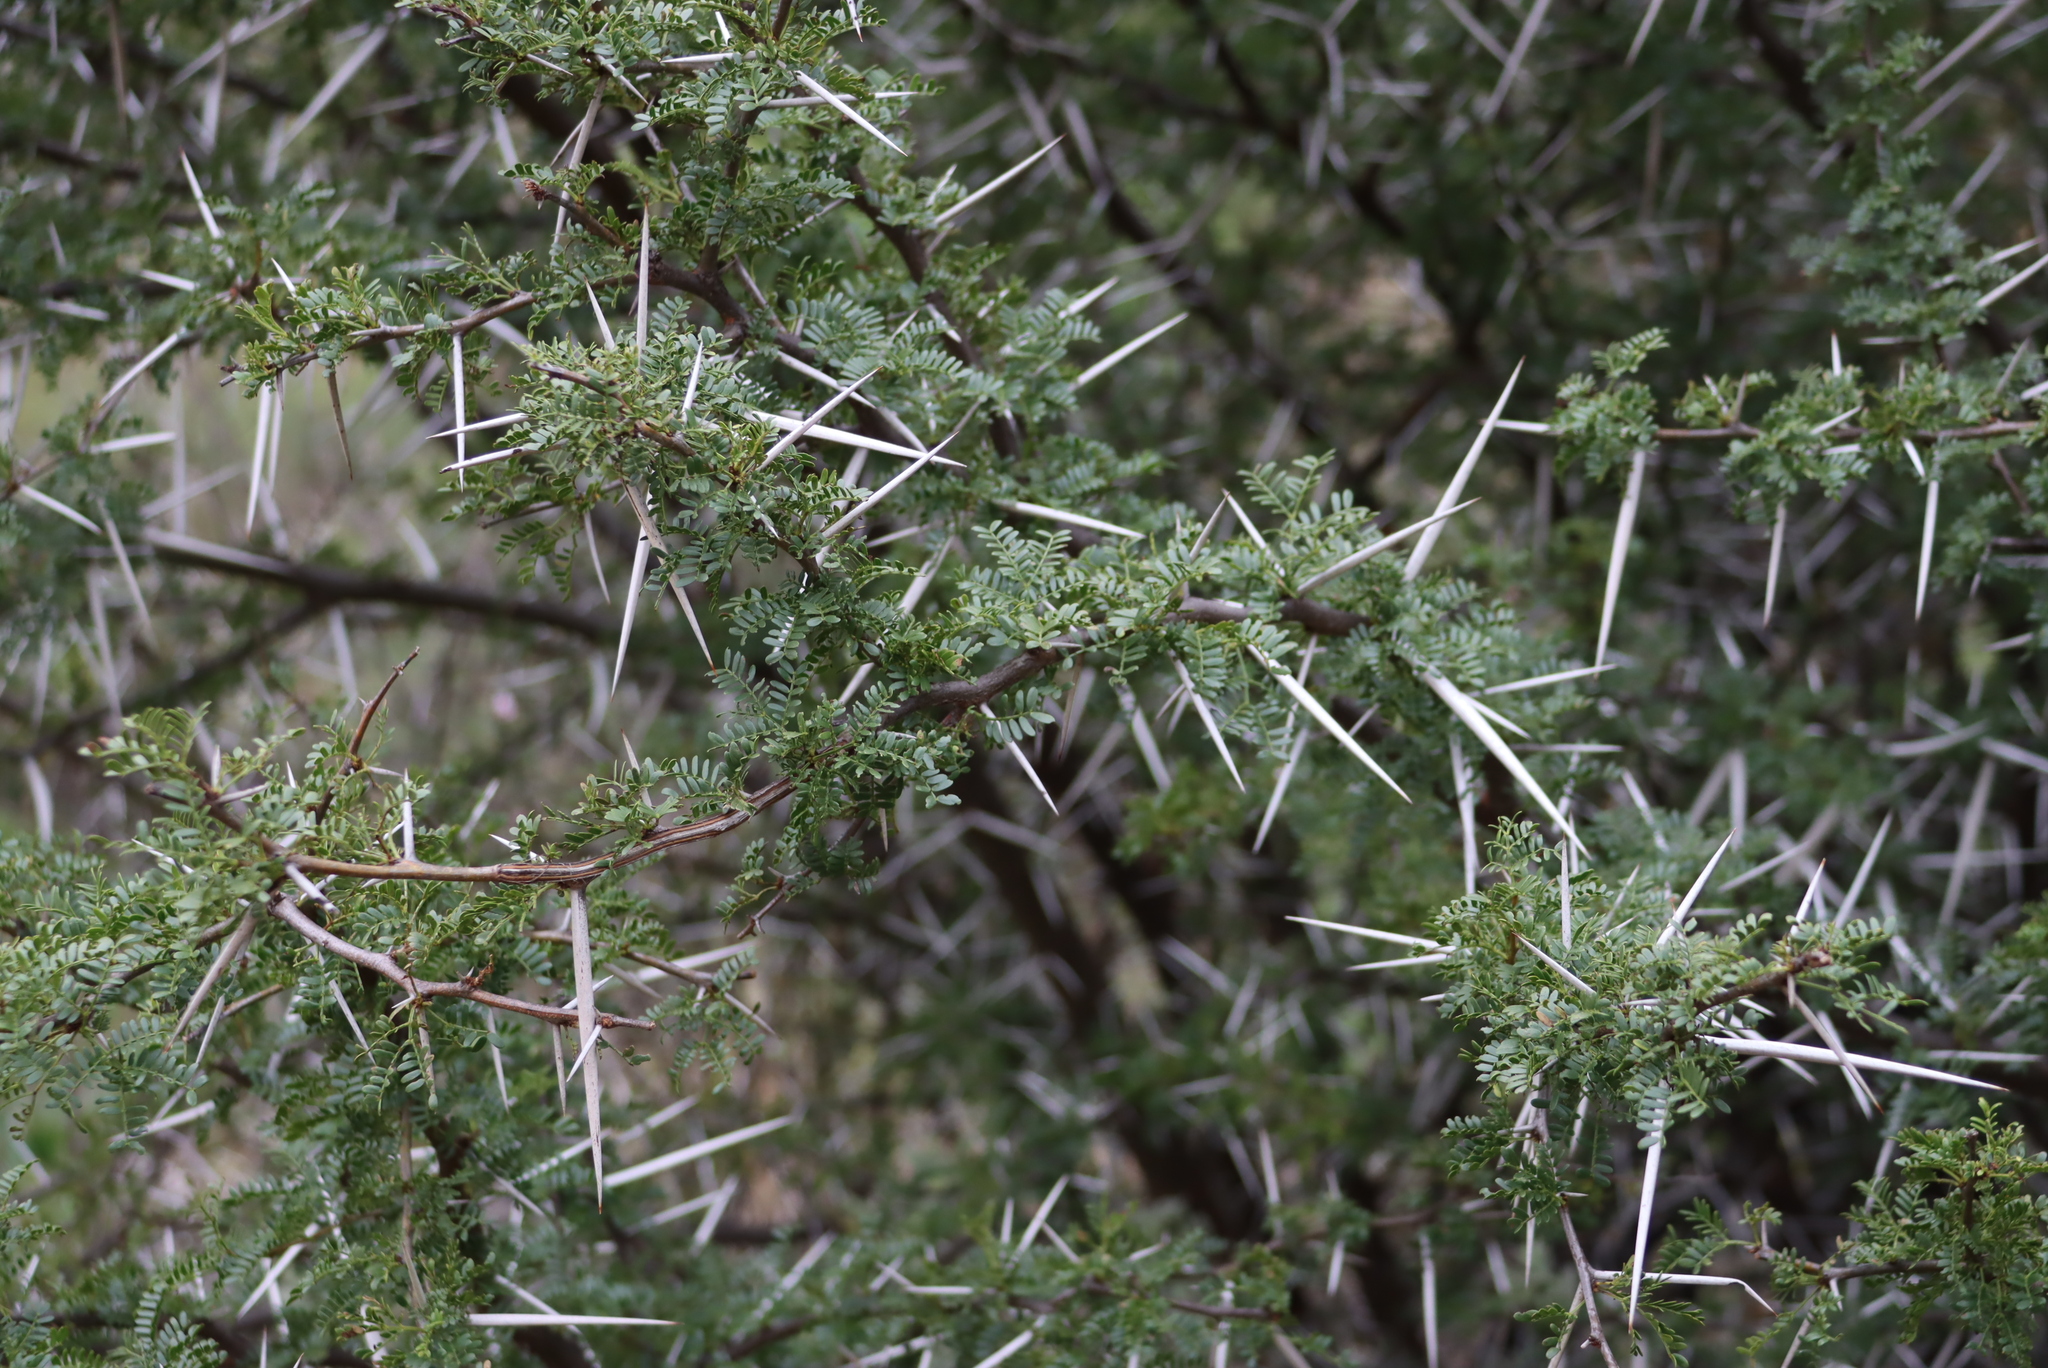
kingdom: Plantae
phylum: Tracheophyta
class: Magnoliopsida
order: Fabales
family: Fabaceae
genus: Vachellia
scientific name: Vachellia karroo
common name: Sweet thorn
